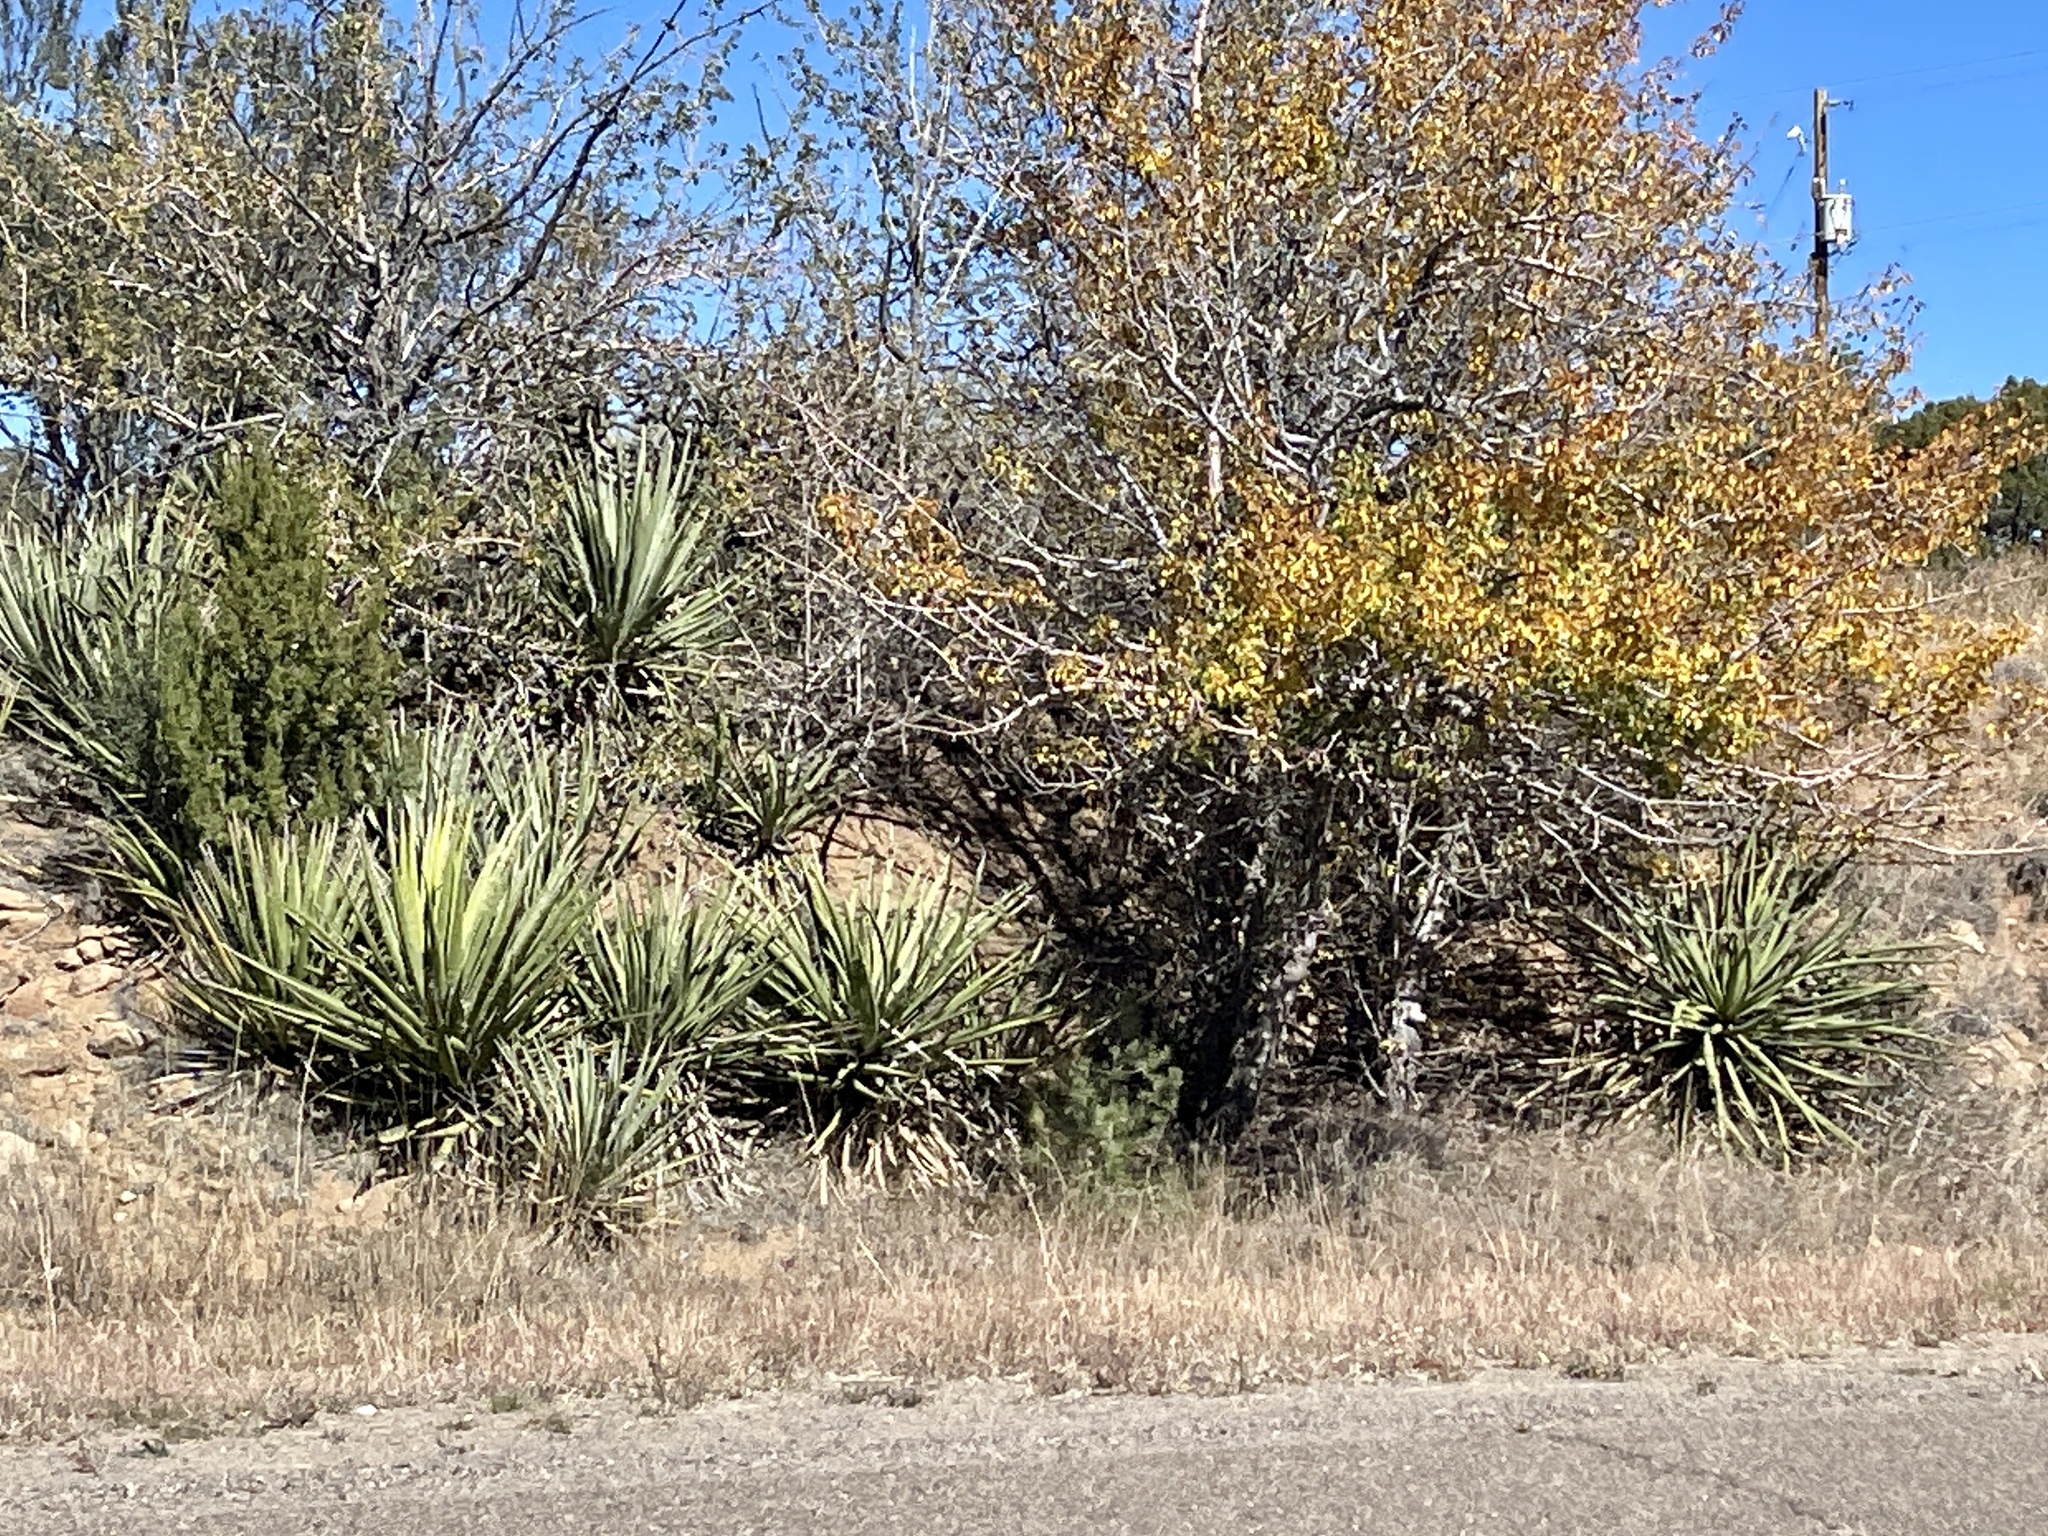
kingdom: Plantae
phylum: Tracheophyta
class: Liliopsida
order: Asparagales
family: Asparagaceae
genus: Yucca
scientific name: Yucca baccata
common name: Banana yucca
